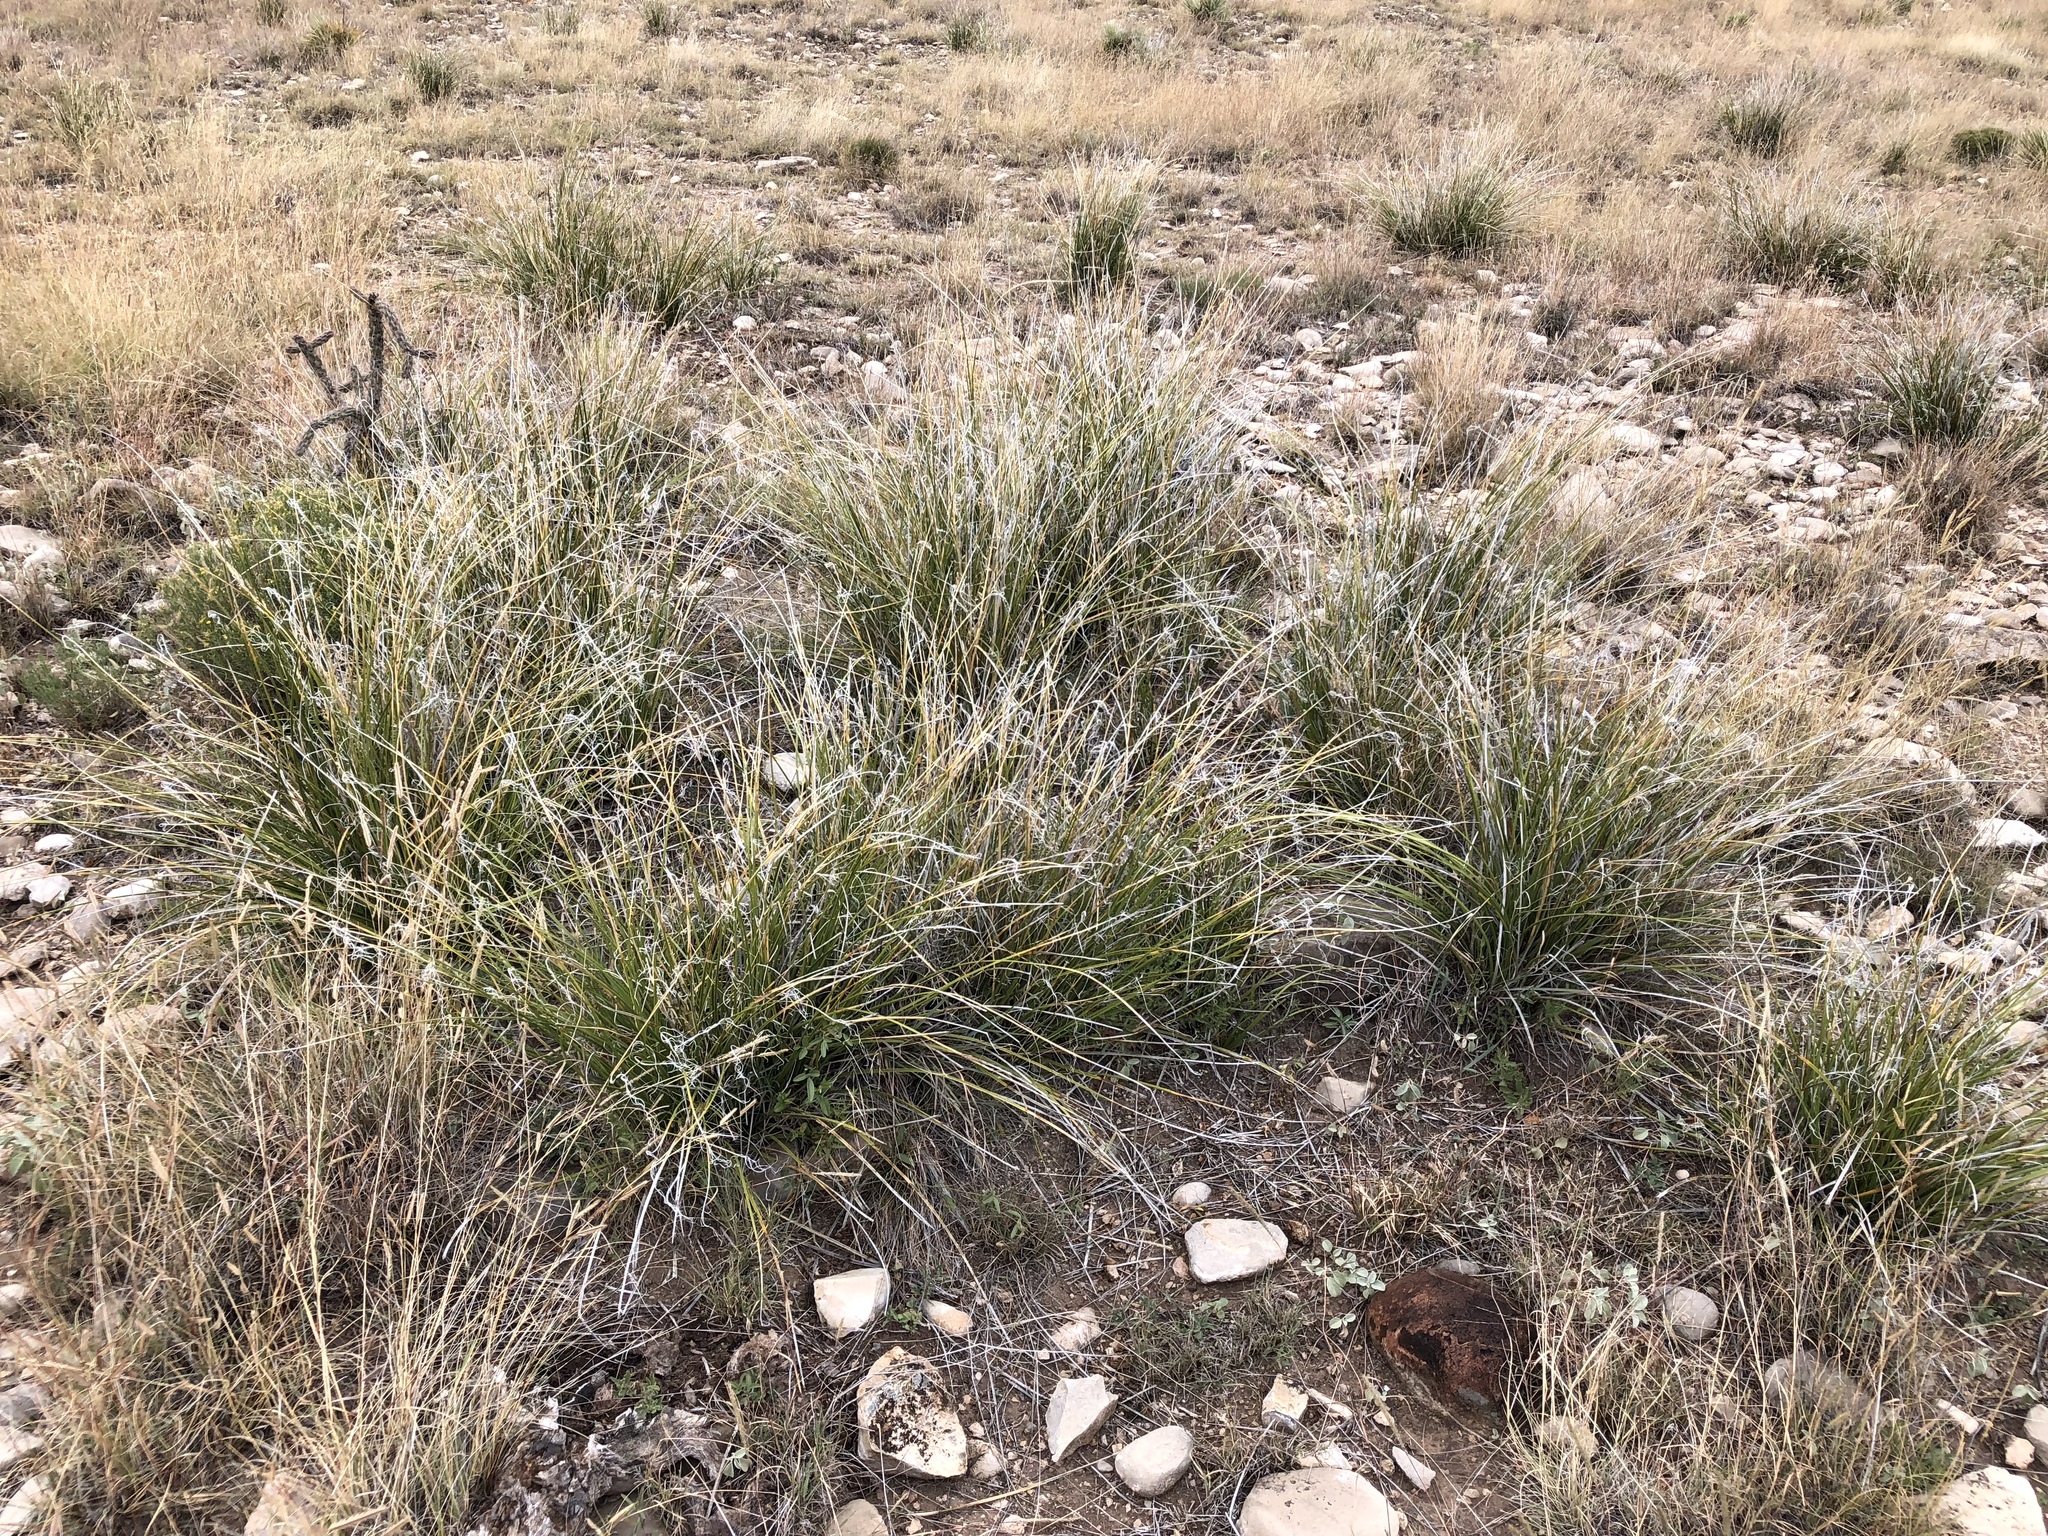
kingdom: Plantae
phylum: Tracheophyta
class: Liliopsida
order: Asparagales
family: Asparagaceae
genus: Nolina
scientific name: Nolina microcarpa
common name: Bear-grass
